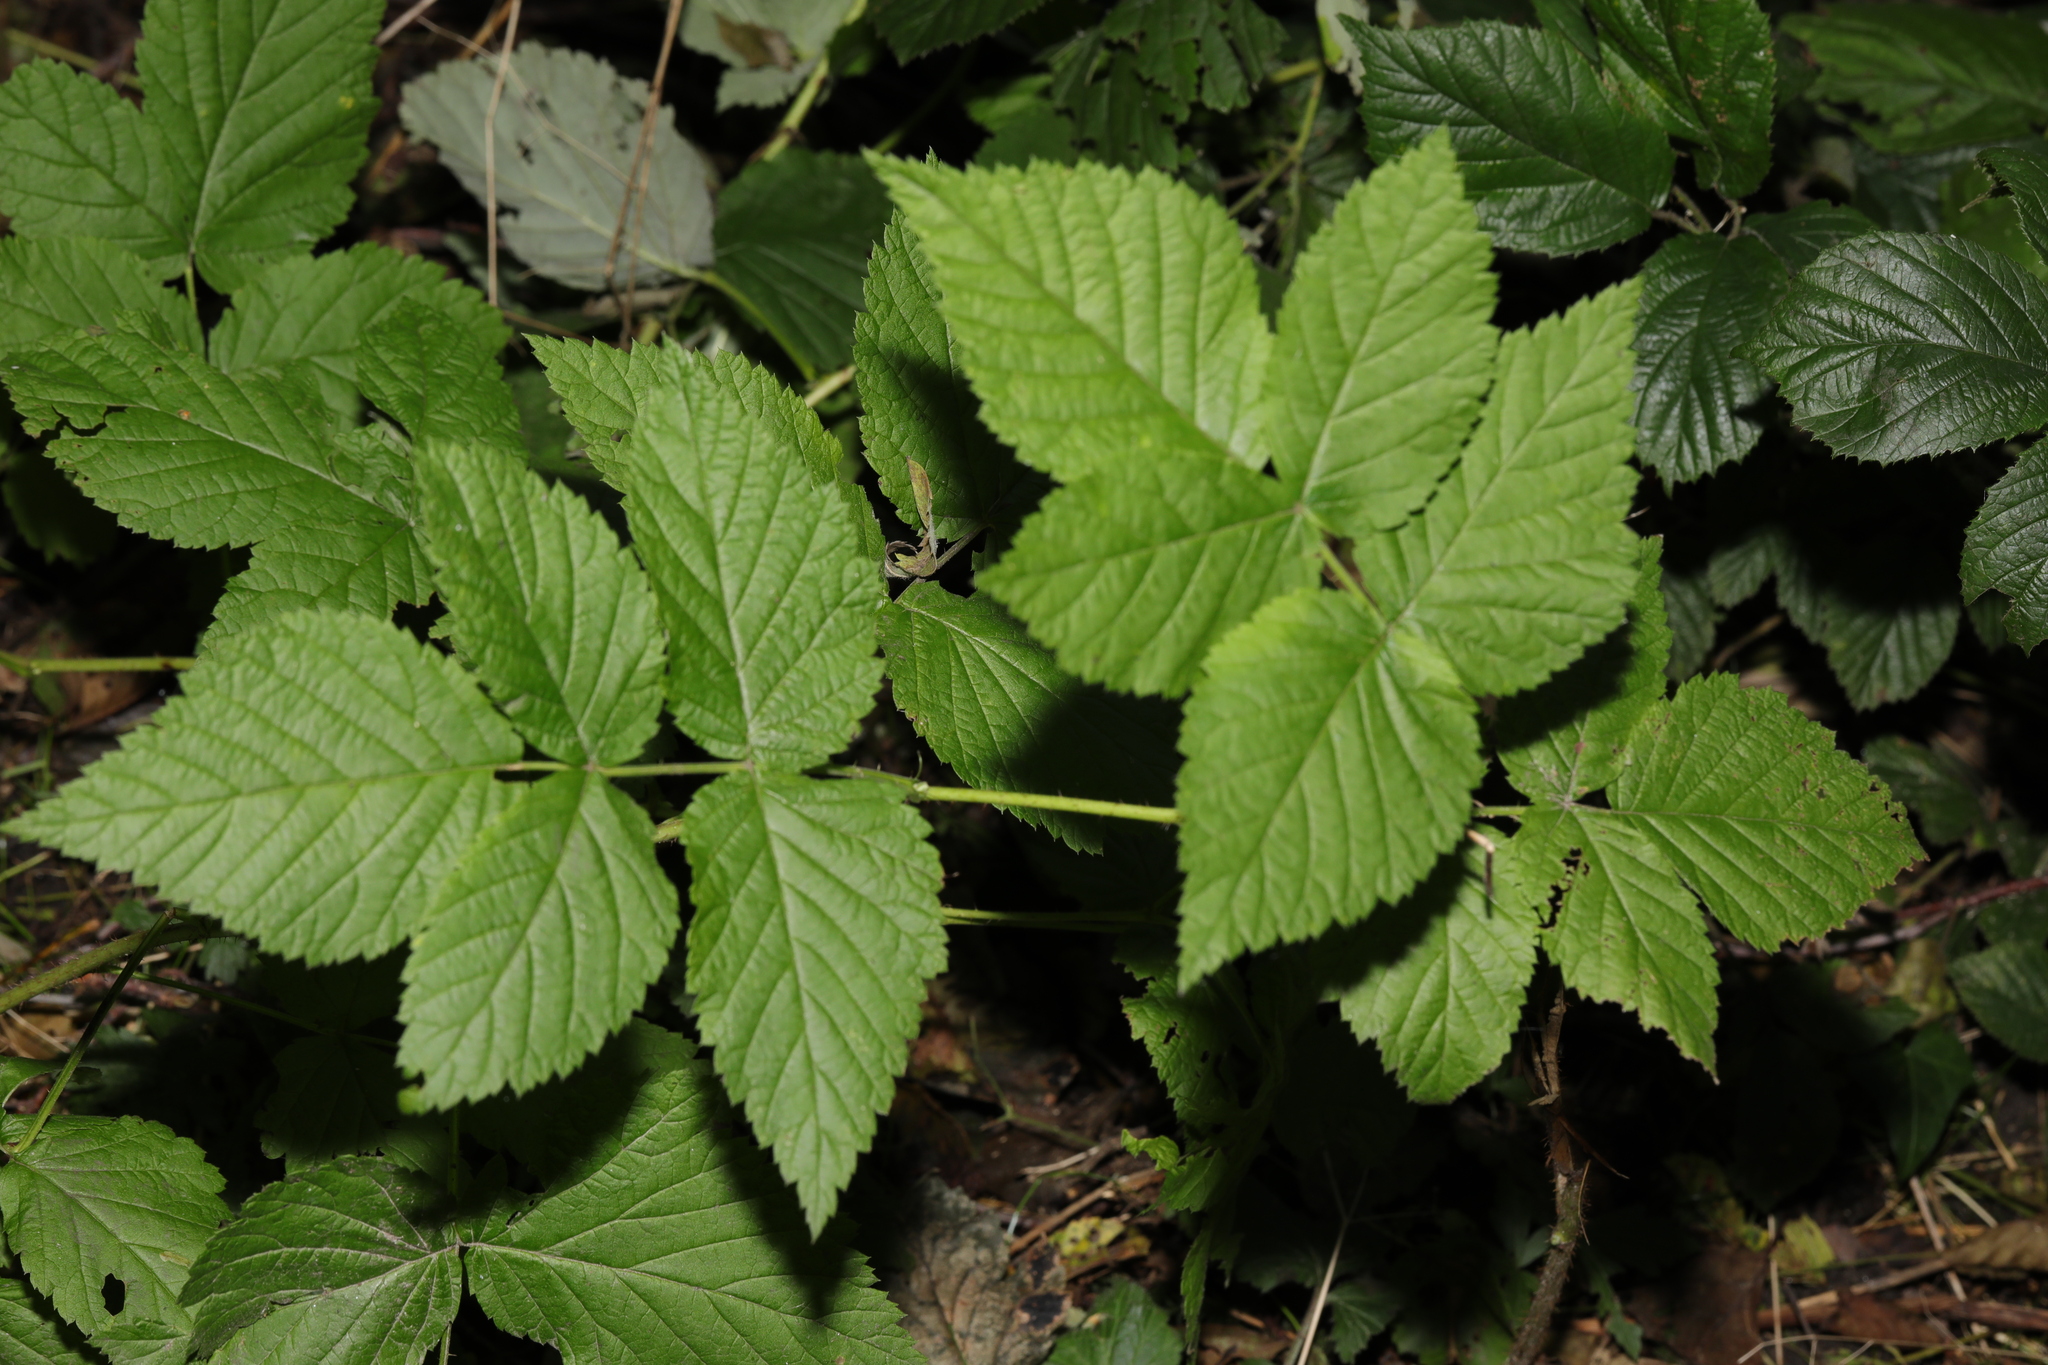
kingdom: Plantae
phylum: Tracheophyta
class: Magnoliopsida
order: Rosales
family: Rosaceae
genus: Rubus
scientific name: Rubus idaeus
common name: Raspberry
